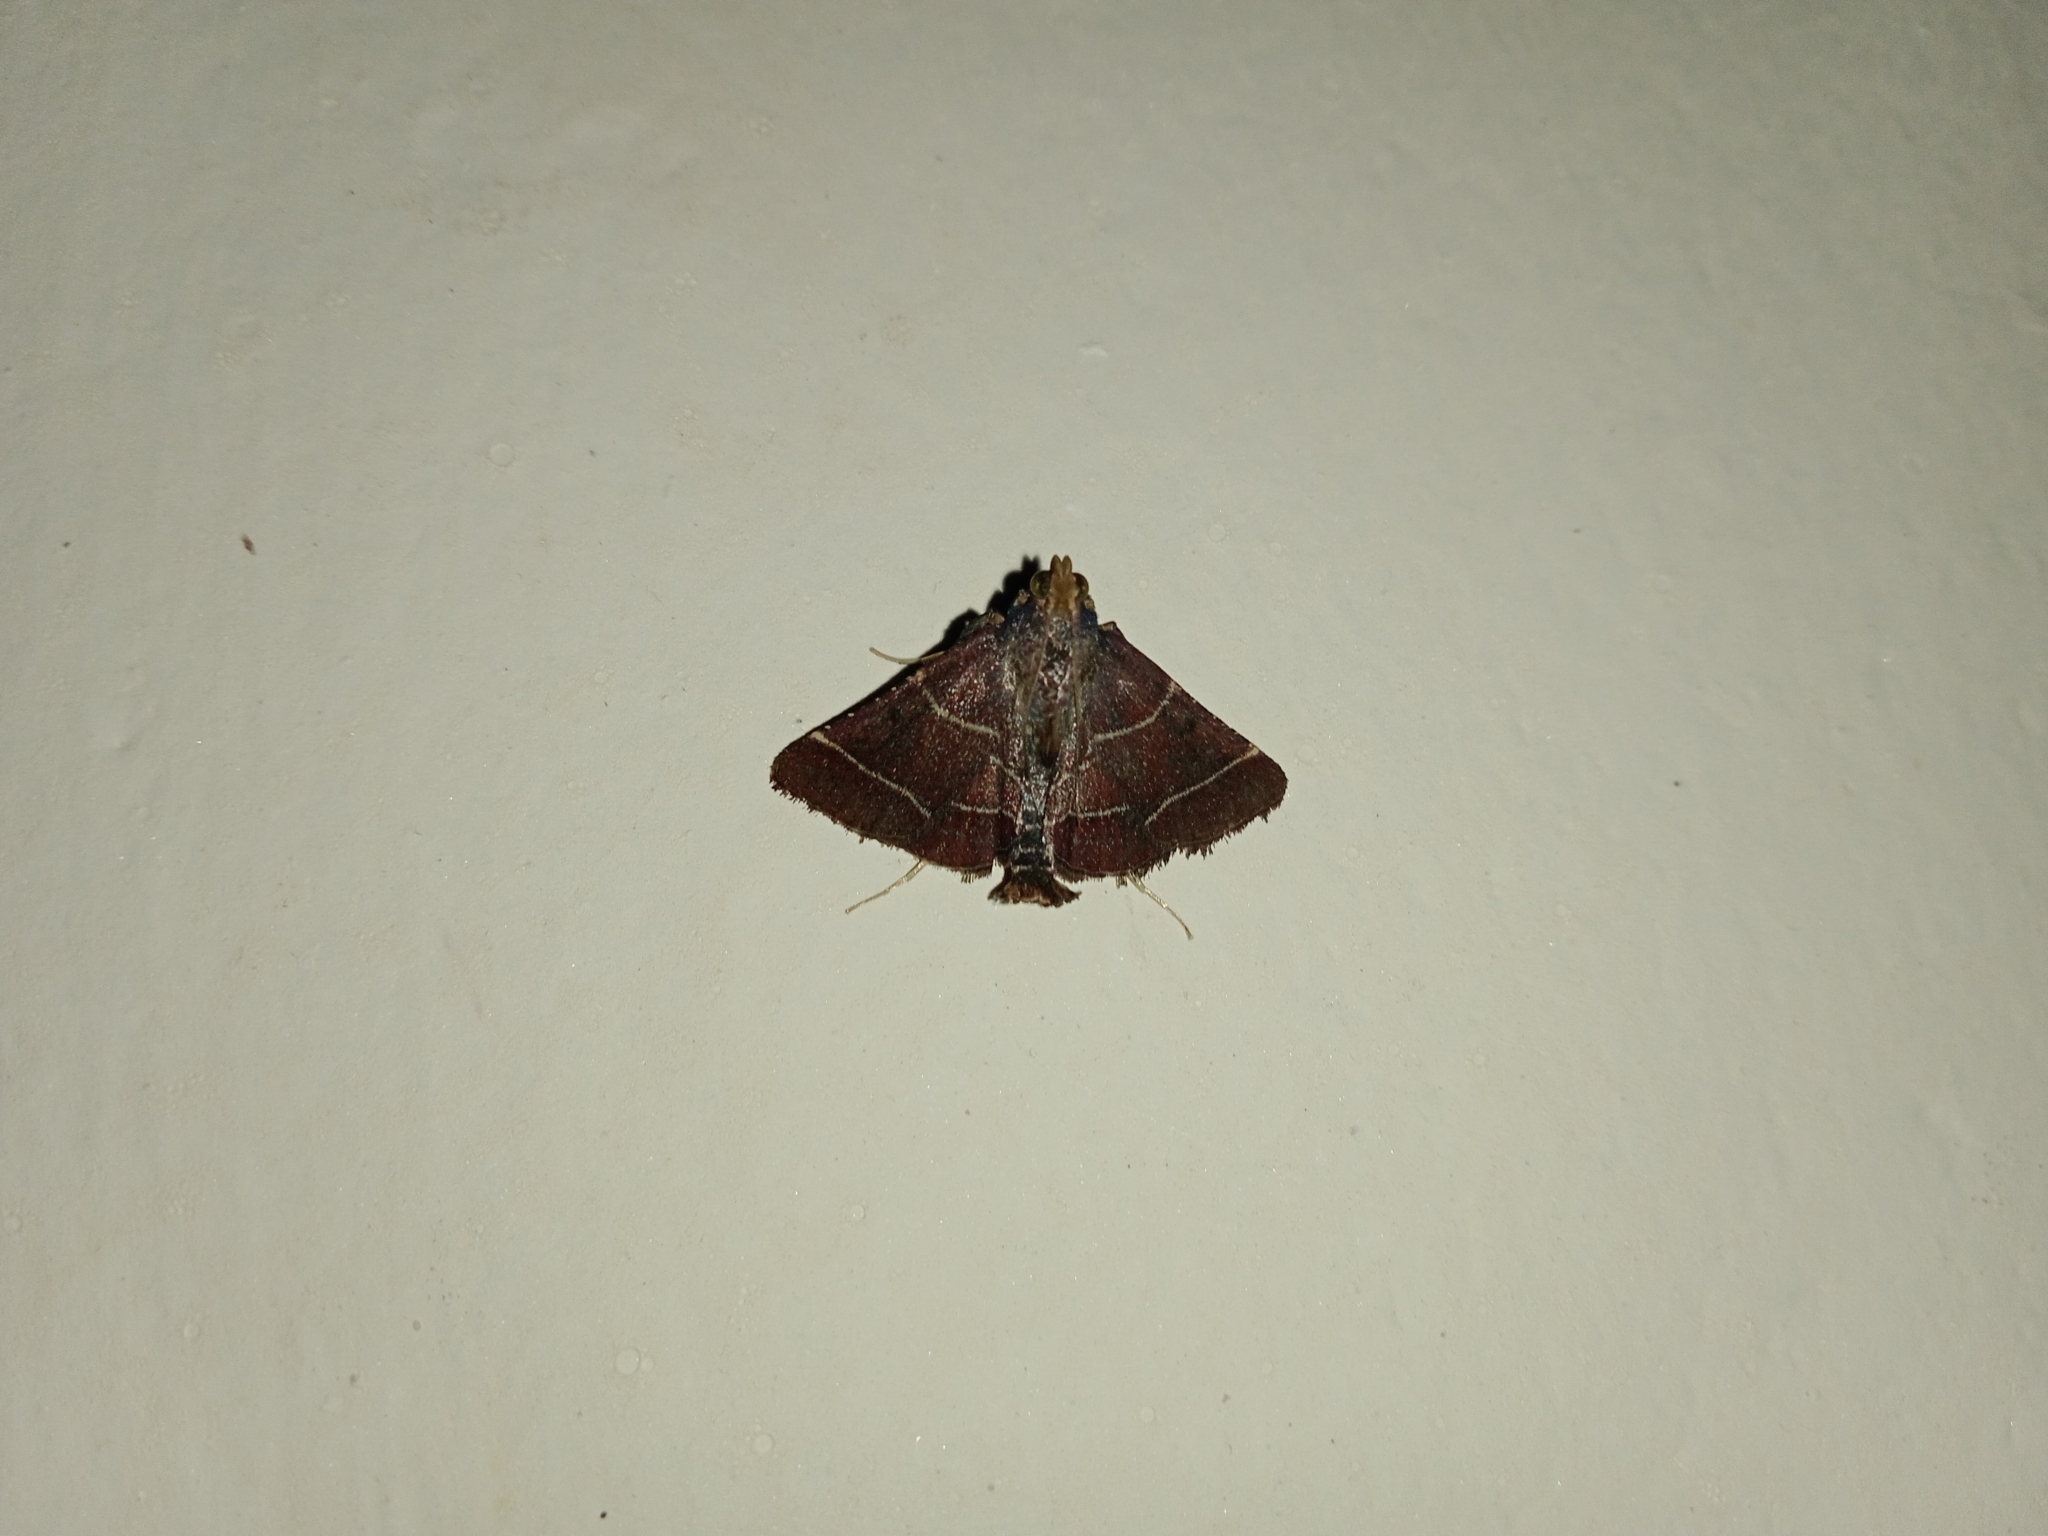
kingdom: Animalia
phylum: Arthropoda
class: Insecta
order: Lepidoptera
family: Pyralidae
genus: Zitha
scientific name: Zitha tactilis
